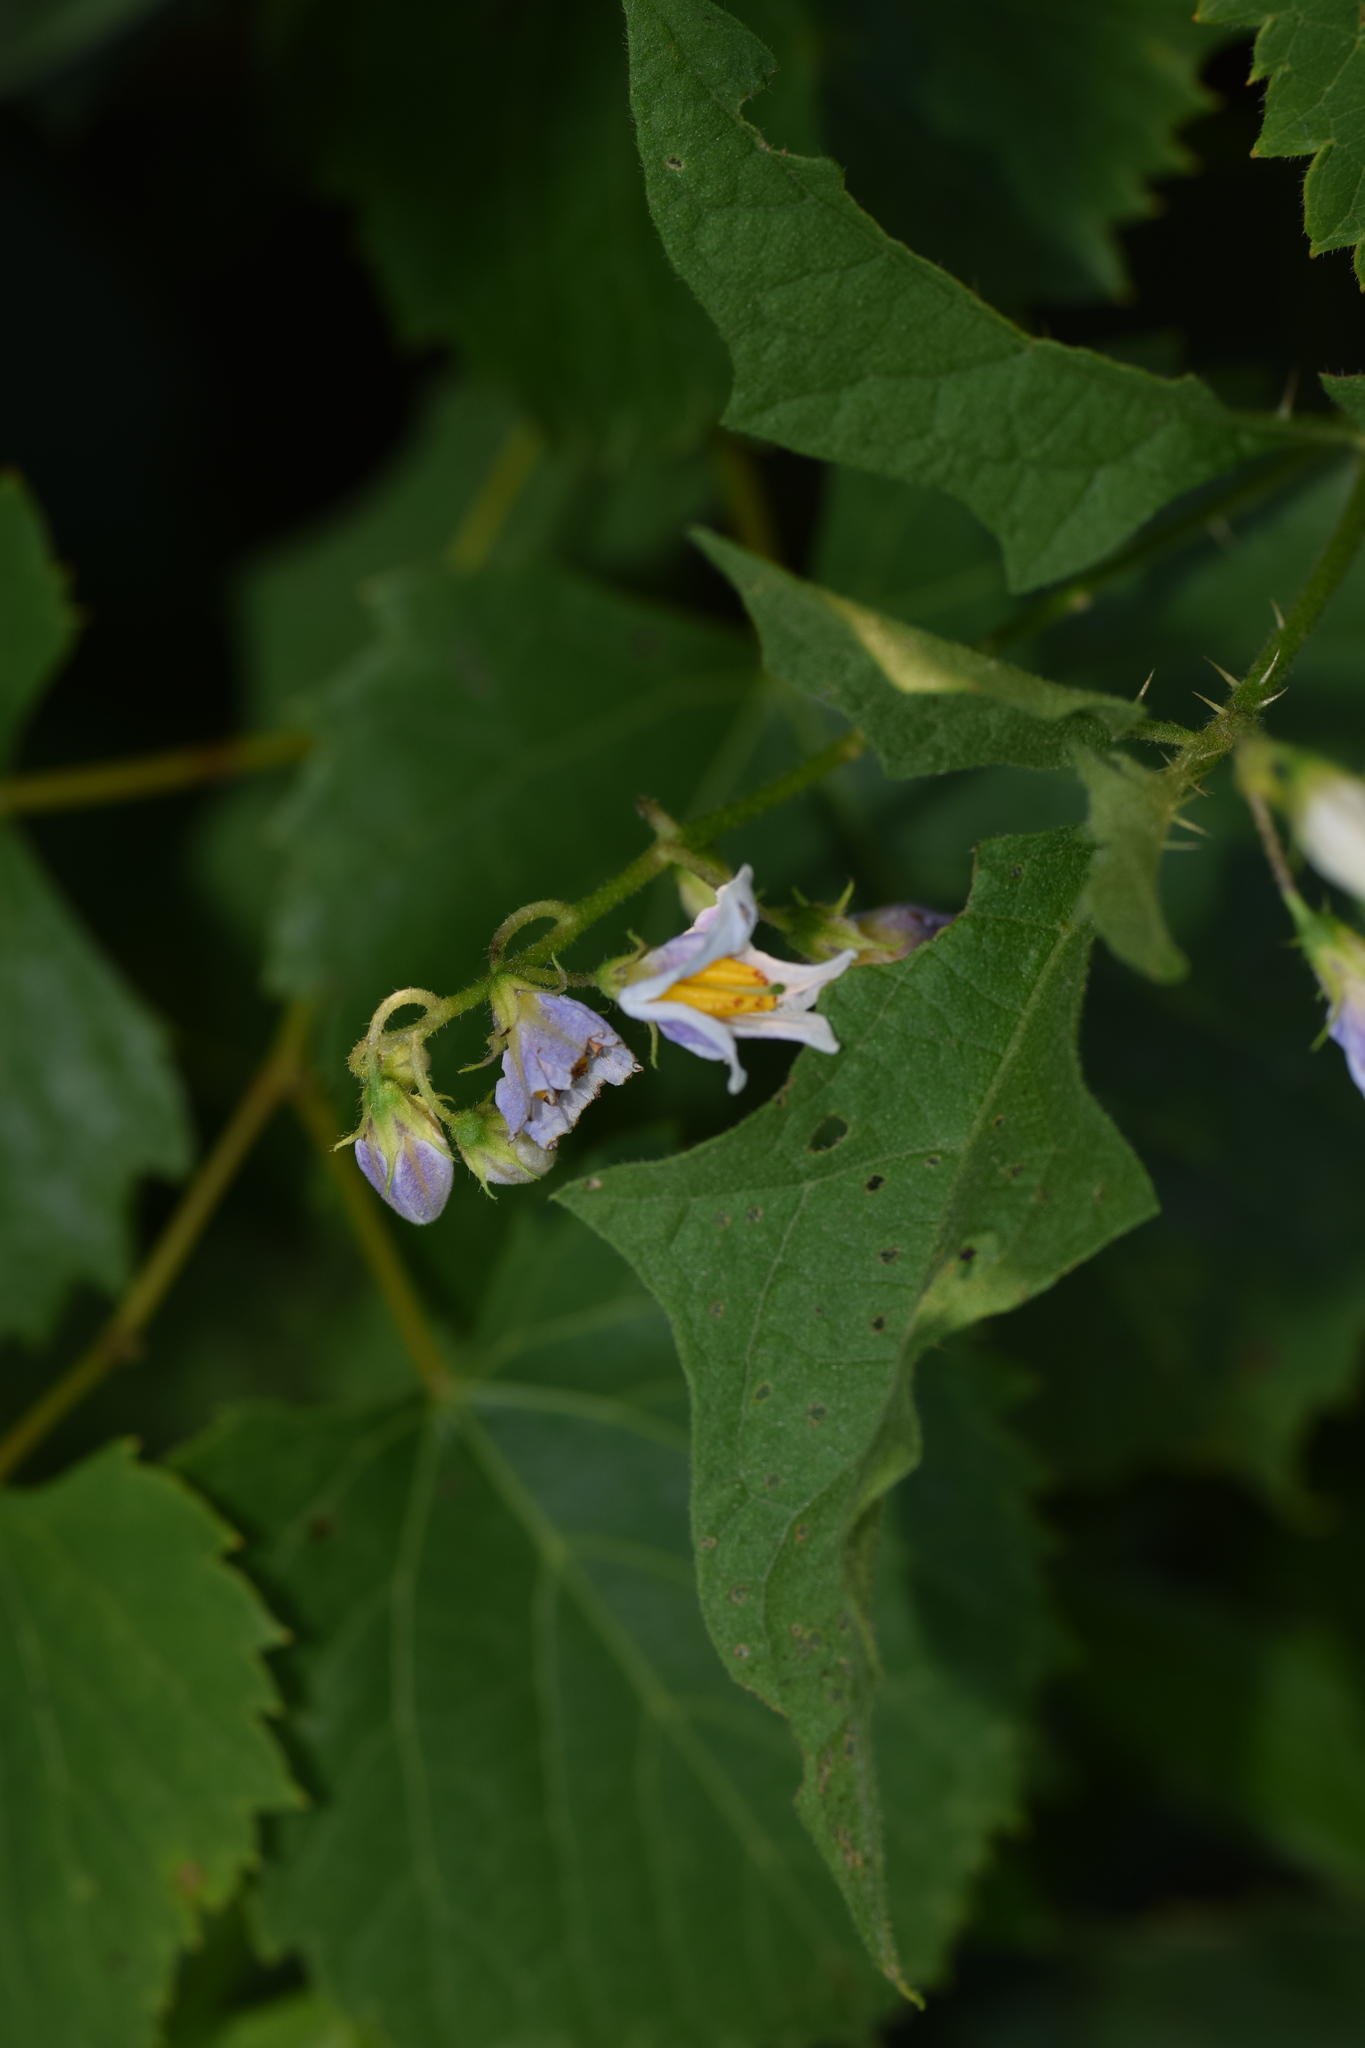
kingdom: Plantae
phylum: Tracheophyta
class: Magnoliopsida
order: Solanales
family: Solanaceae
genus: Solanum
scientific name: Solanum carolinense
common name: Horse-nettle
